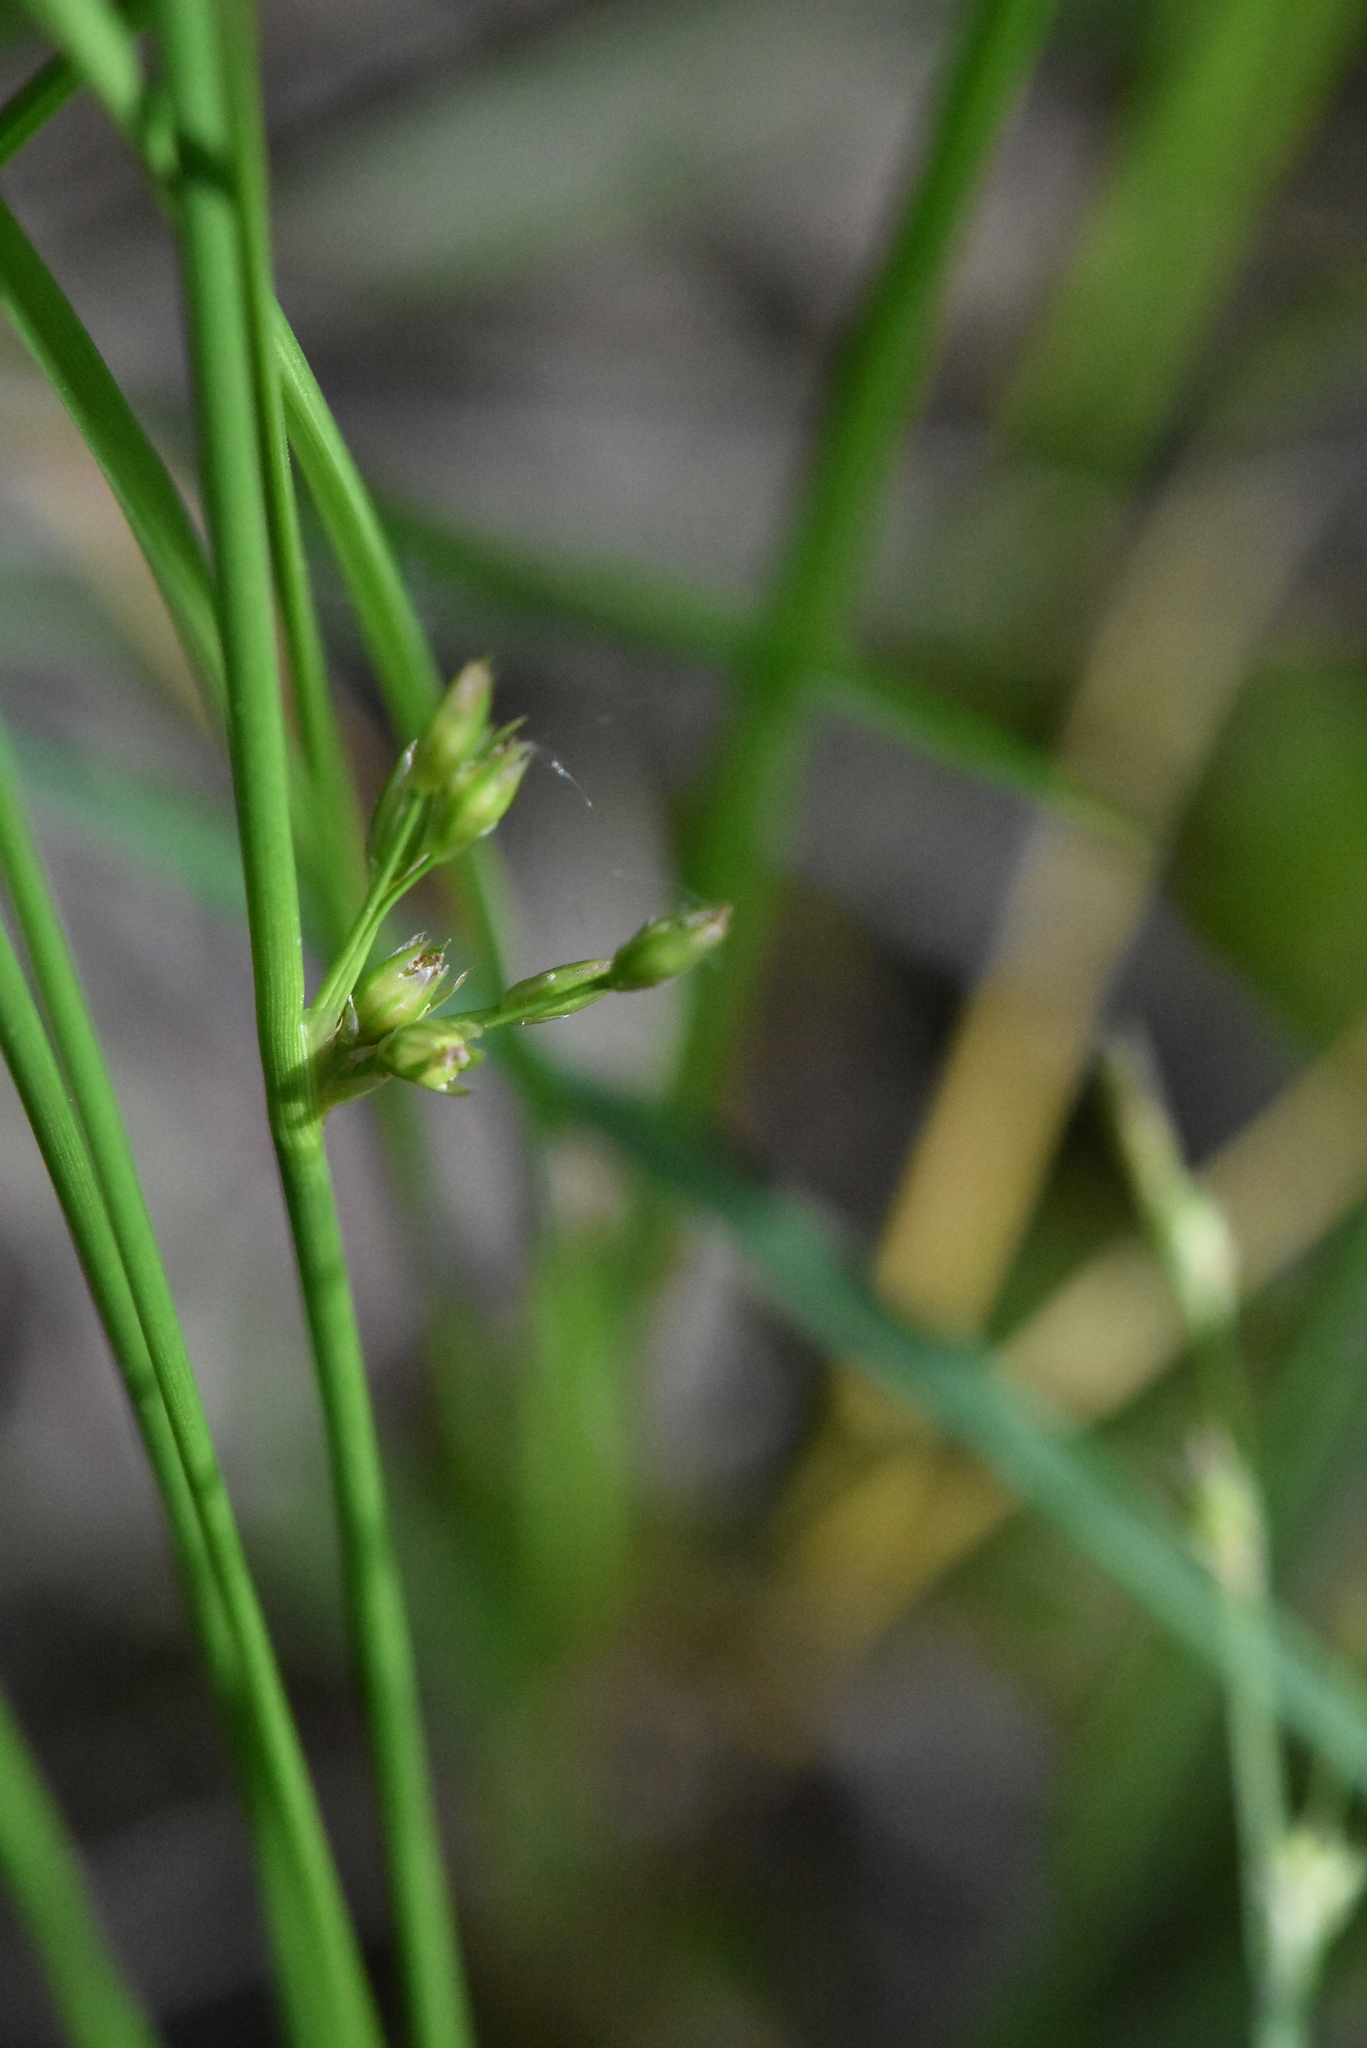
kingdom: Plantae
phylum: Tracheophyta
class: Liliopsida
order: Poales
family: Juncaceae
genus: Juncus
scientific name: Juncus filiformis
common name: Thread rush
